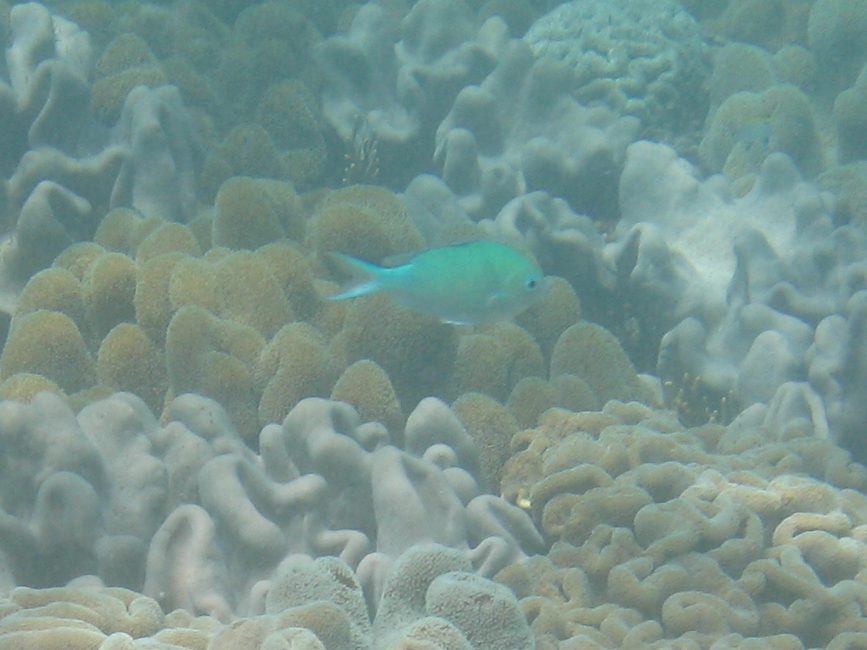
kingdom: Animalia
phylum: Chordata
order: Perciformes
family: Pomacentridae
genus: Chromis
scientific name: Chromis viridis
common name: Blue-green chromis
